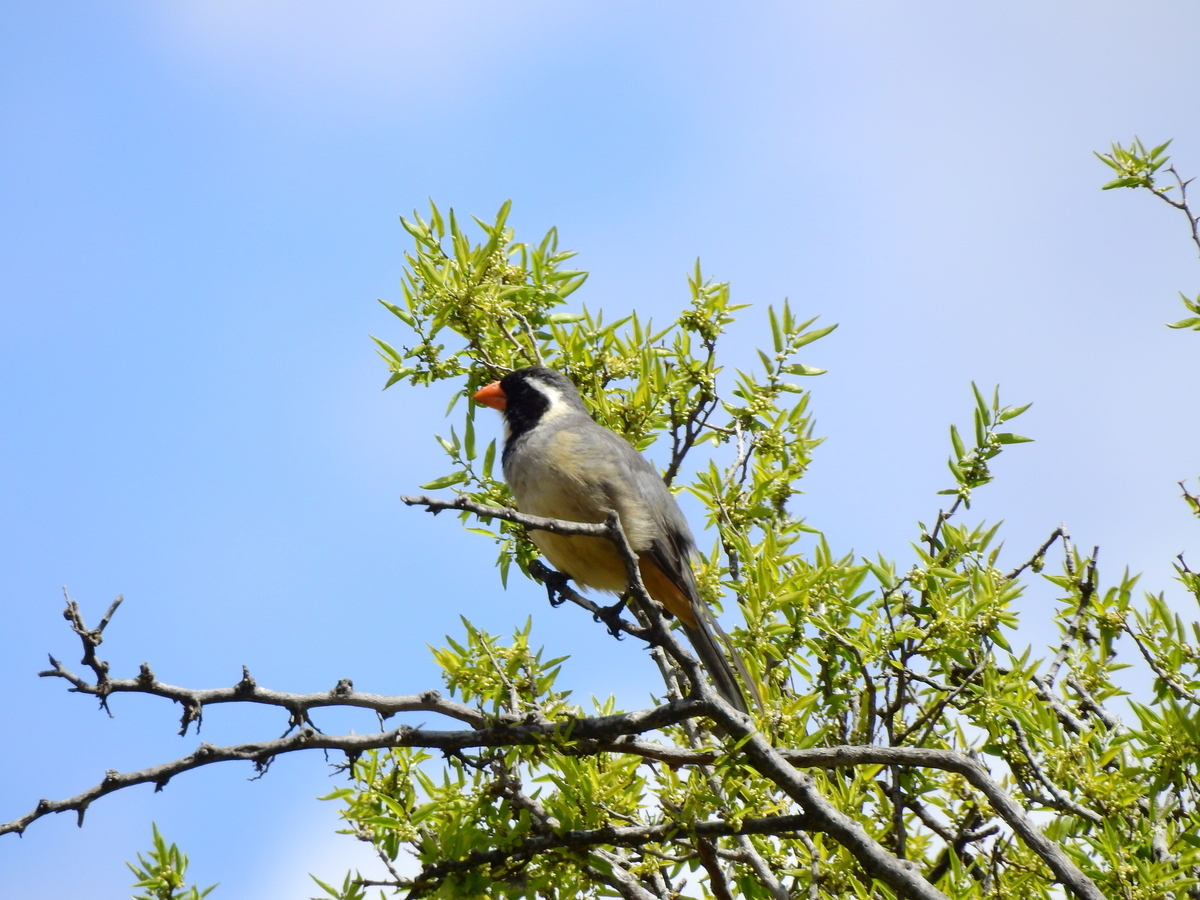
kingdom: Animalia
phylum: Chordata
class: Aves
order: Passeriformes
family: Thraupidae
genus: Saltator
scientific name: Saltator aurantiirostris
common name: Golden-billed saltator
